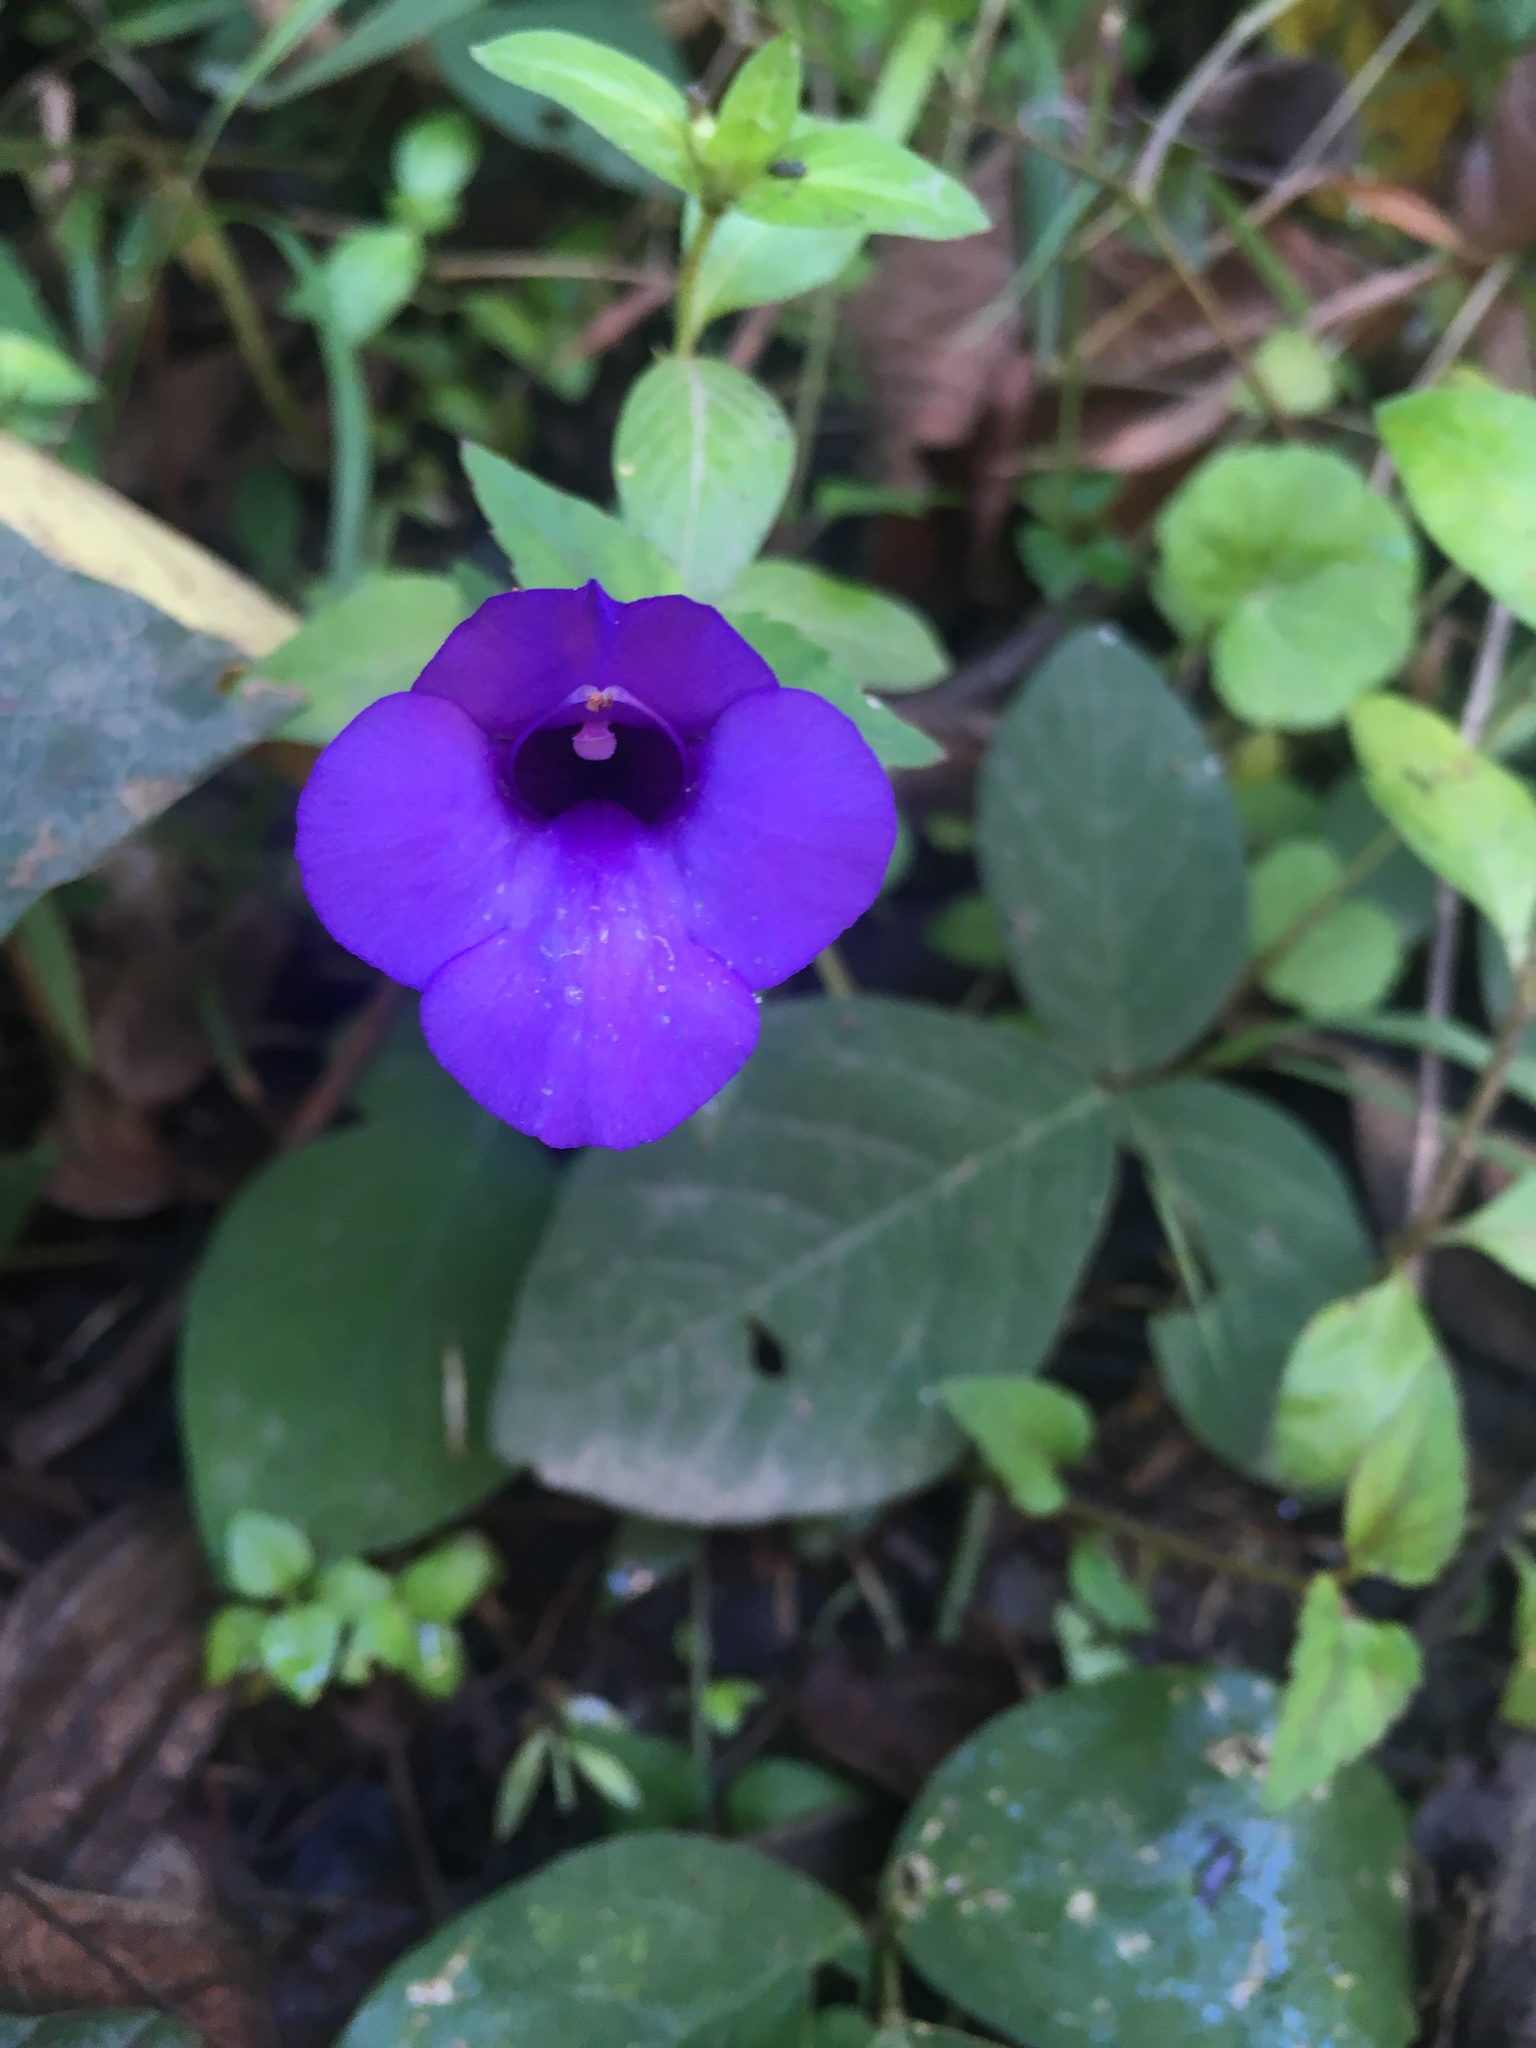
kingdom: Plantae
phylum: Tracheophyta
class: Magnoliopsida
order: Lamiales
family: Linderniaceae
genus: Torenia
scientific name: Torenia concolor
